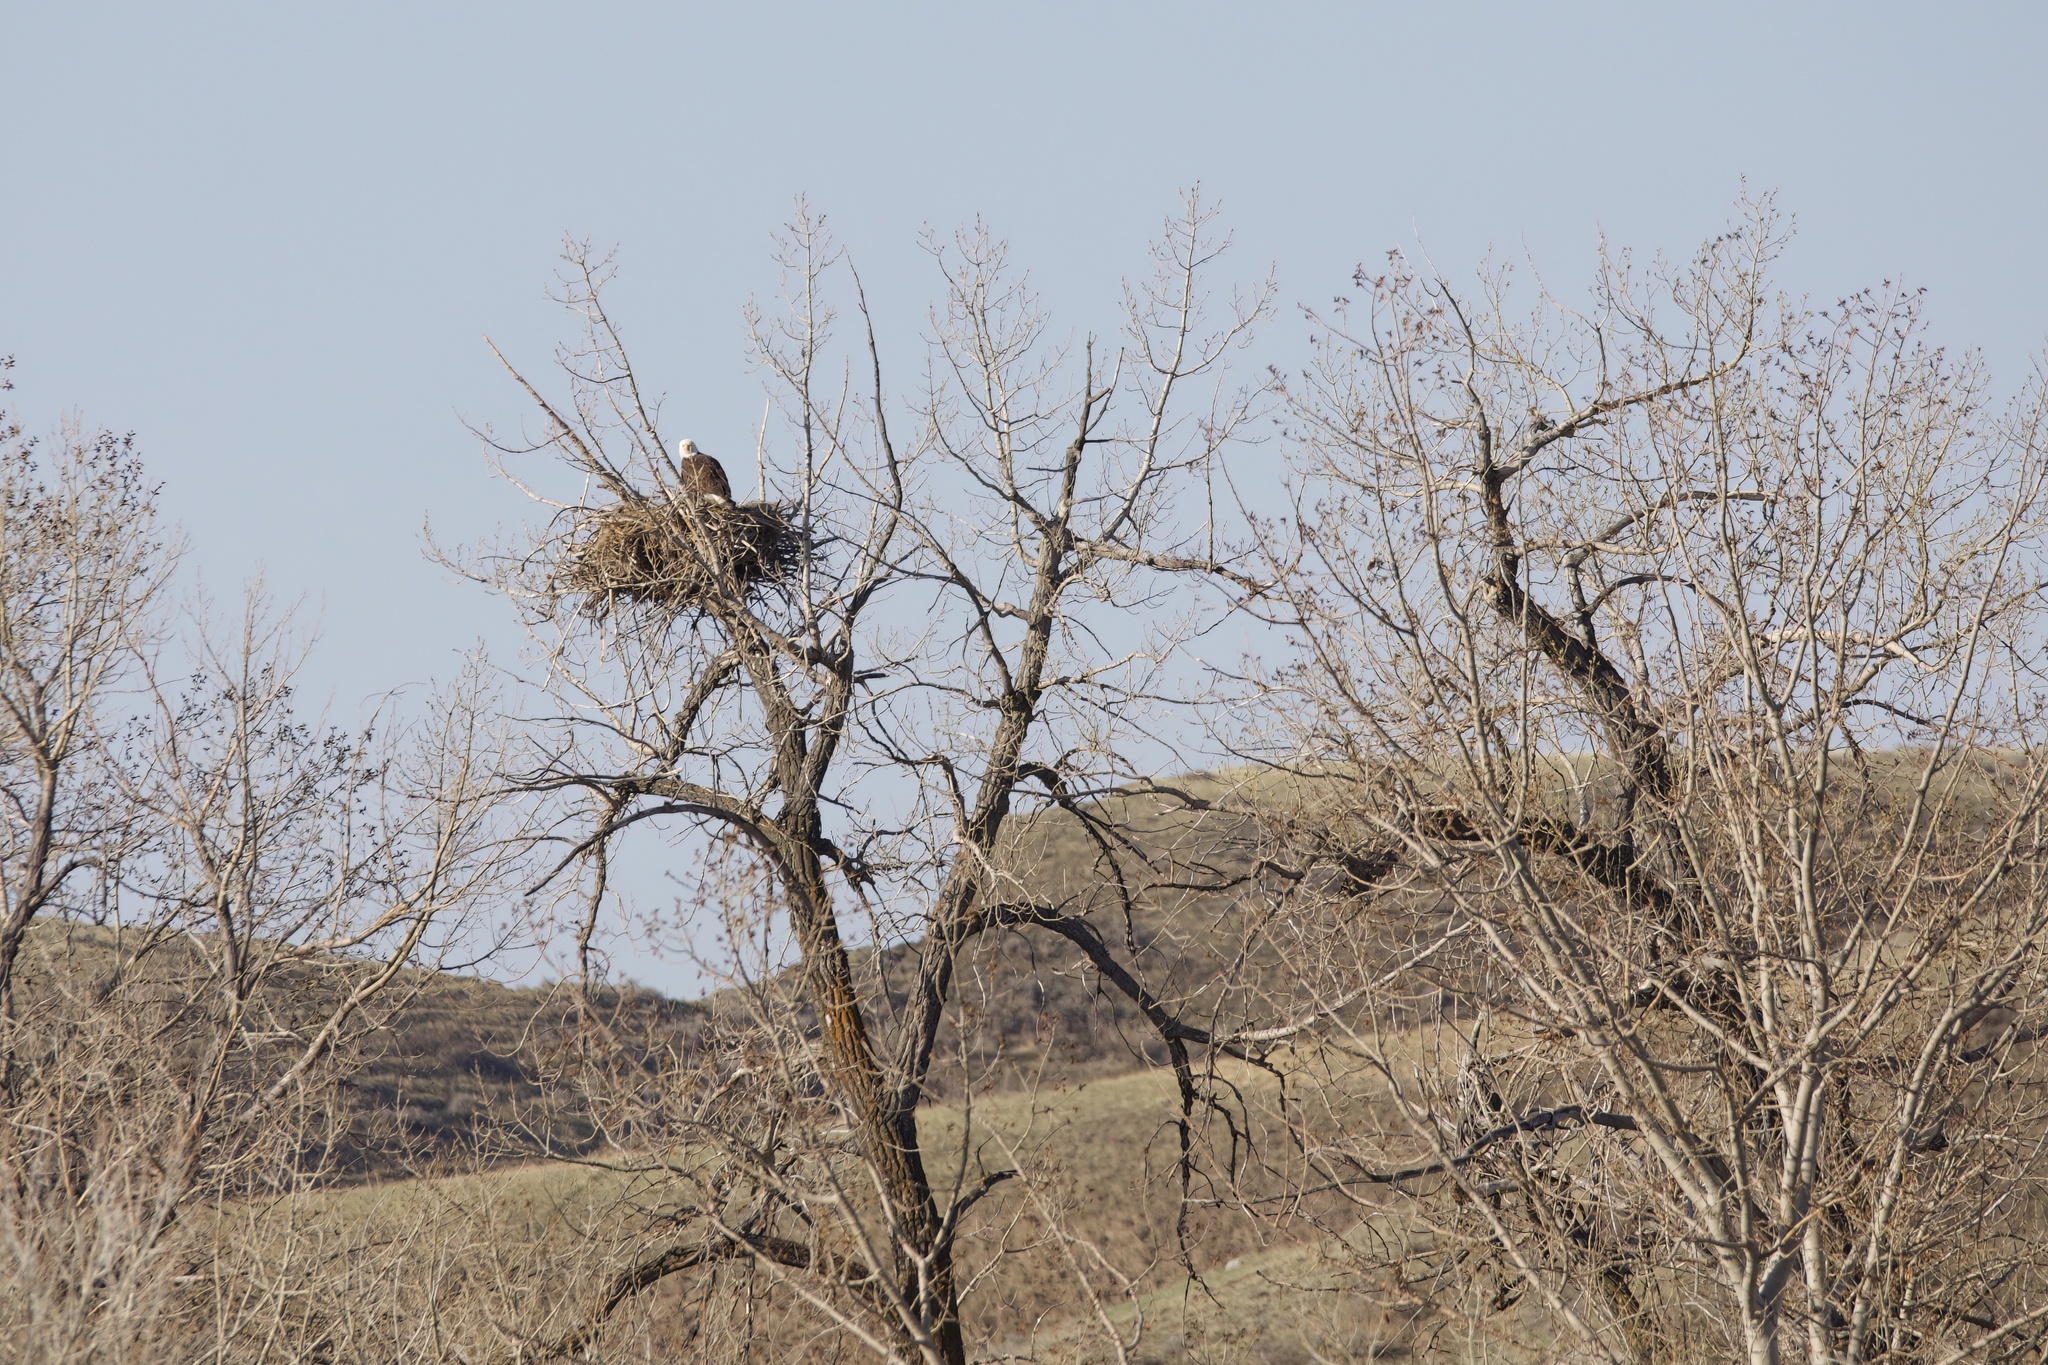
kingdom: Animalia
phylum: Chordata
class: Aves
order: Accipitriformes
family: Accipitridae
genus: Haliaeetus
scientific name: Haliaeetus leucocephalus
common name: Bald eagle
